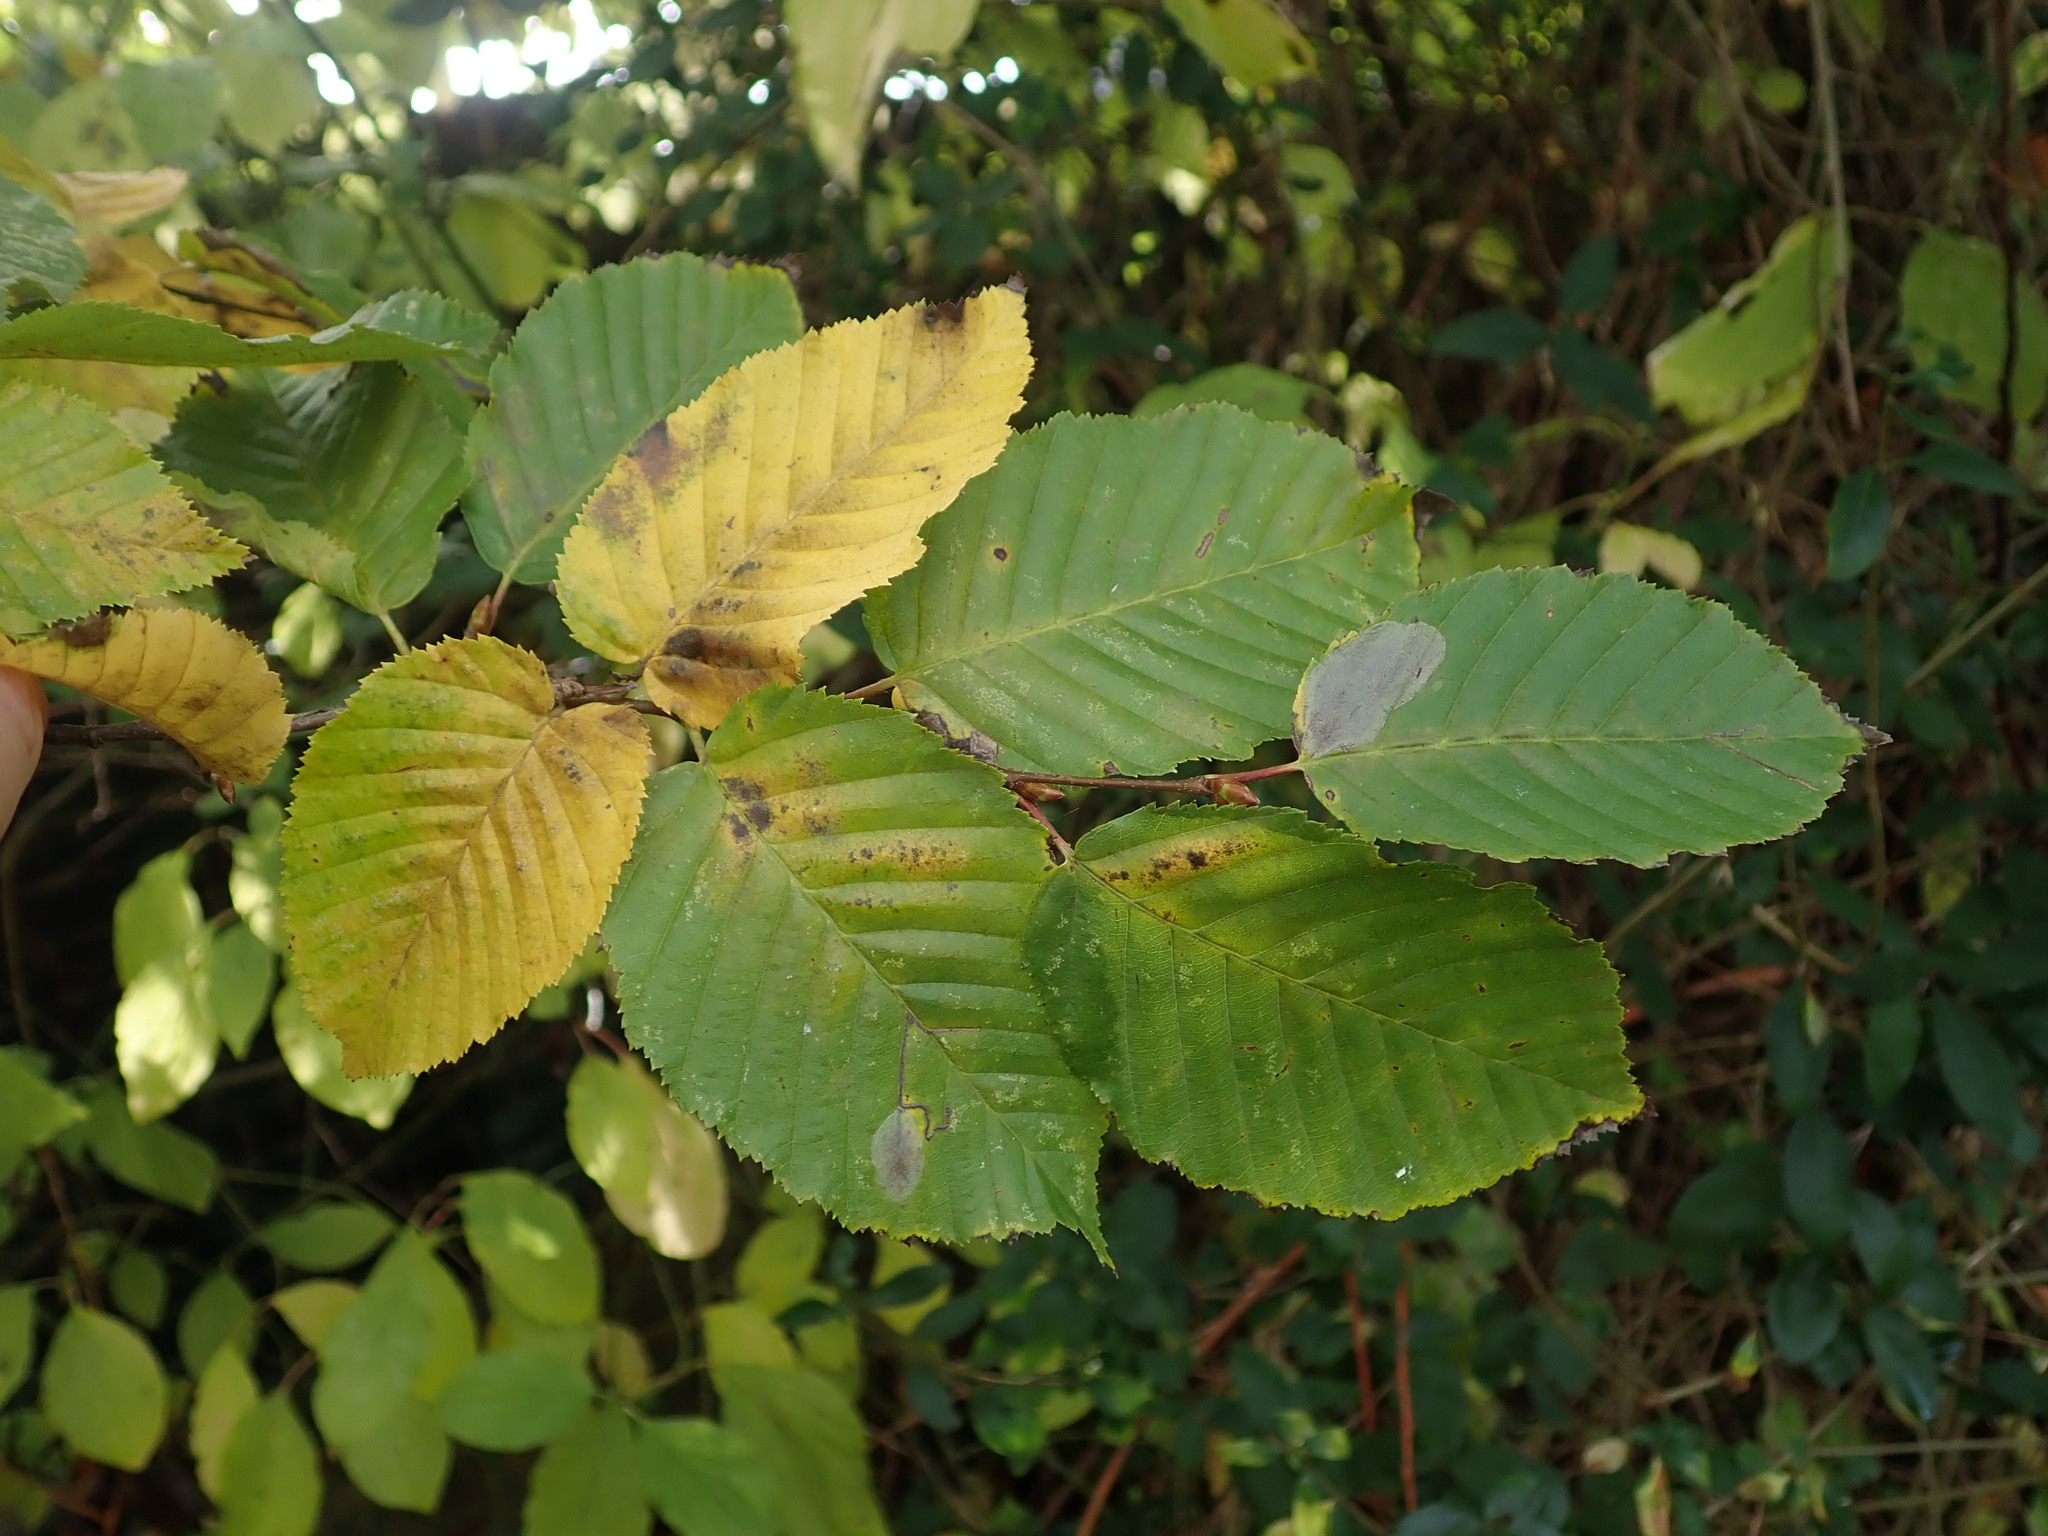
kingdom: Plantae
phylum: Tracheophyta
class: Magnoliopsida
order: Fagales
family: Betulaceae
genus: Carpinus
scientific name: Carpinus betulus
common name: Hornbeam
